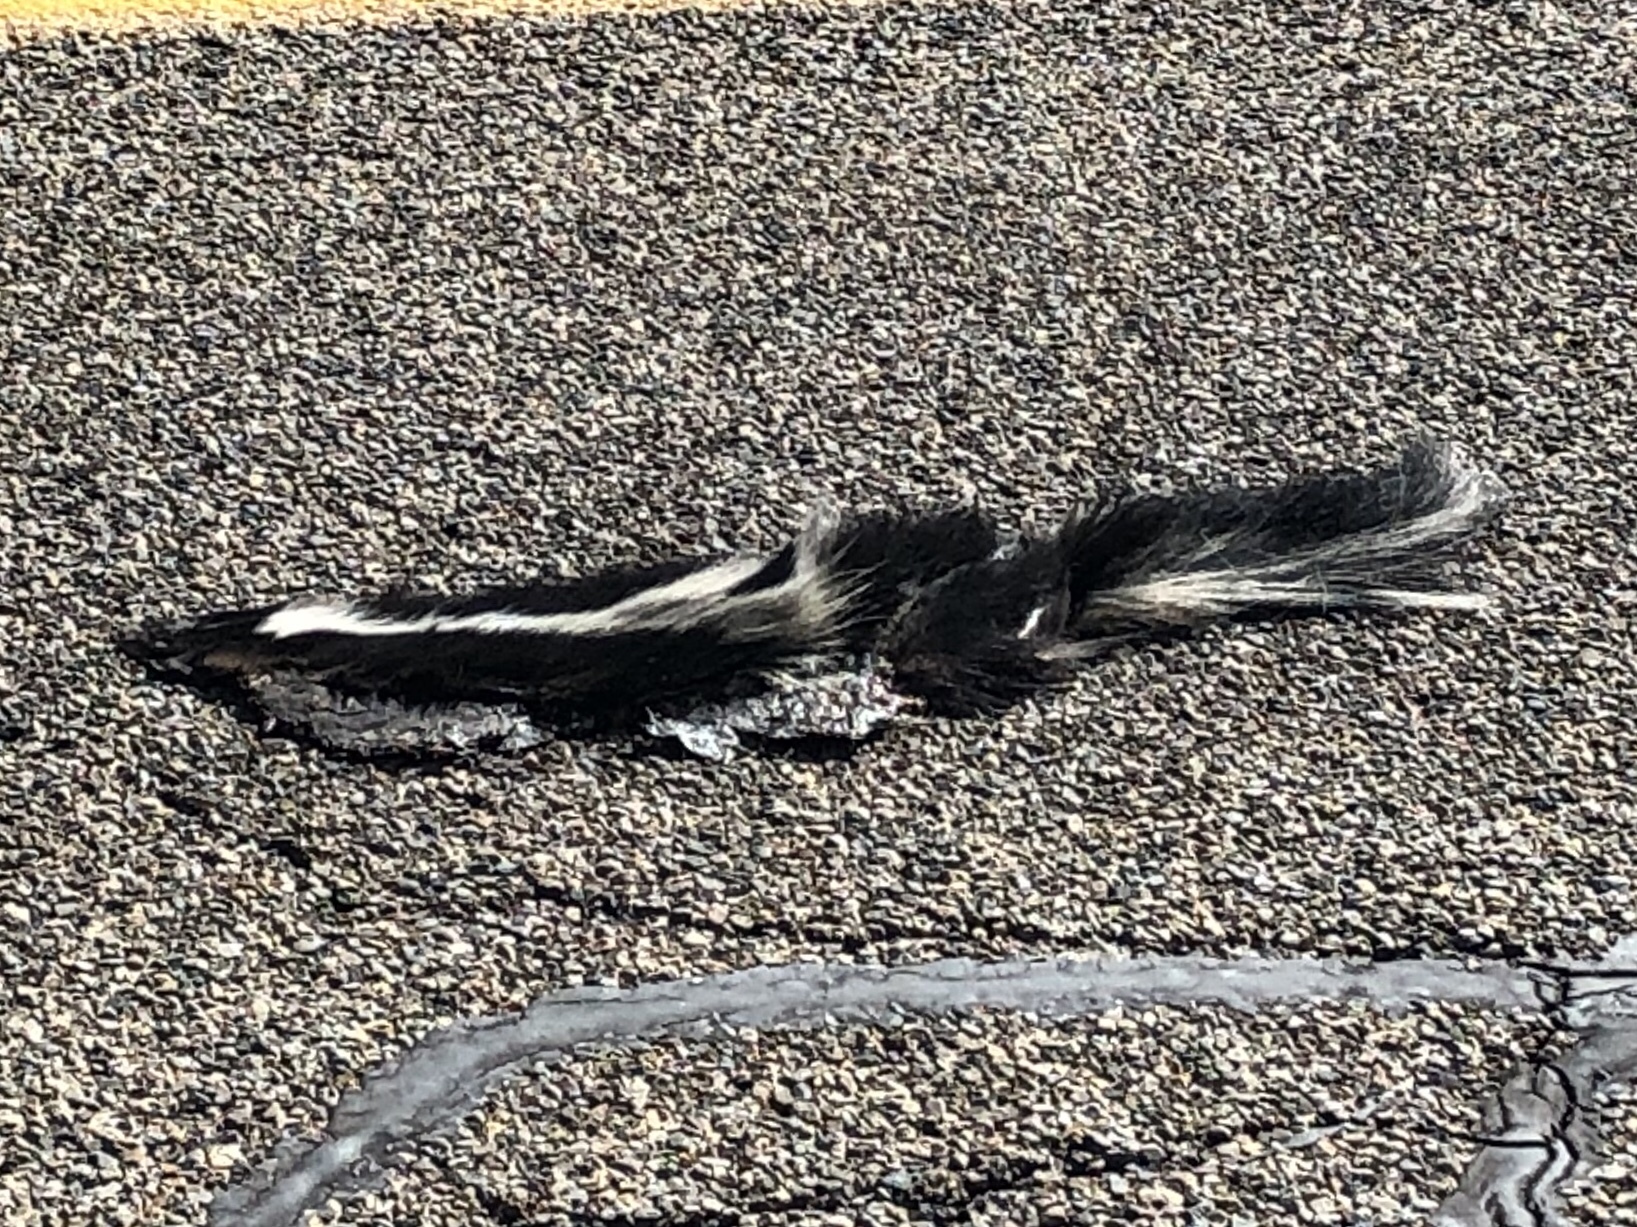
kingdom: Animalia
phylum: Chordata
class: Mammalia
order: Carnivora
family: Mephitidae
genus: Mephitis
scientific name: Mephitis mephitis
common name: Striped skunk
